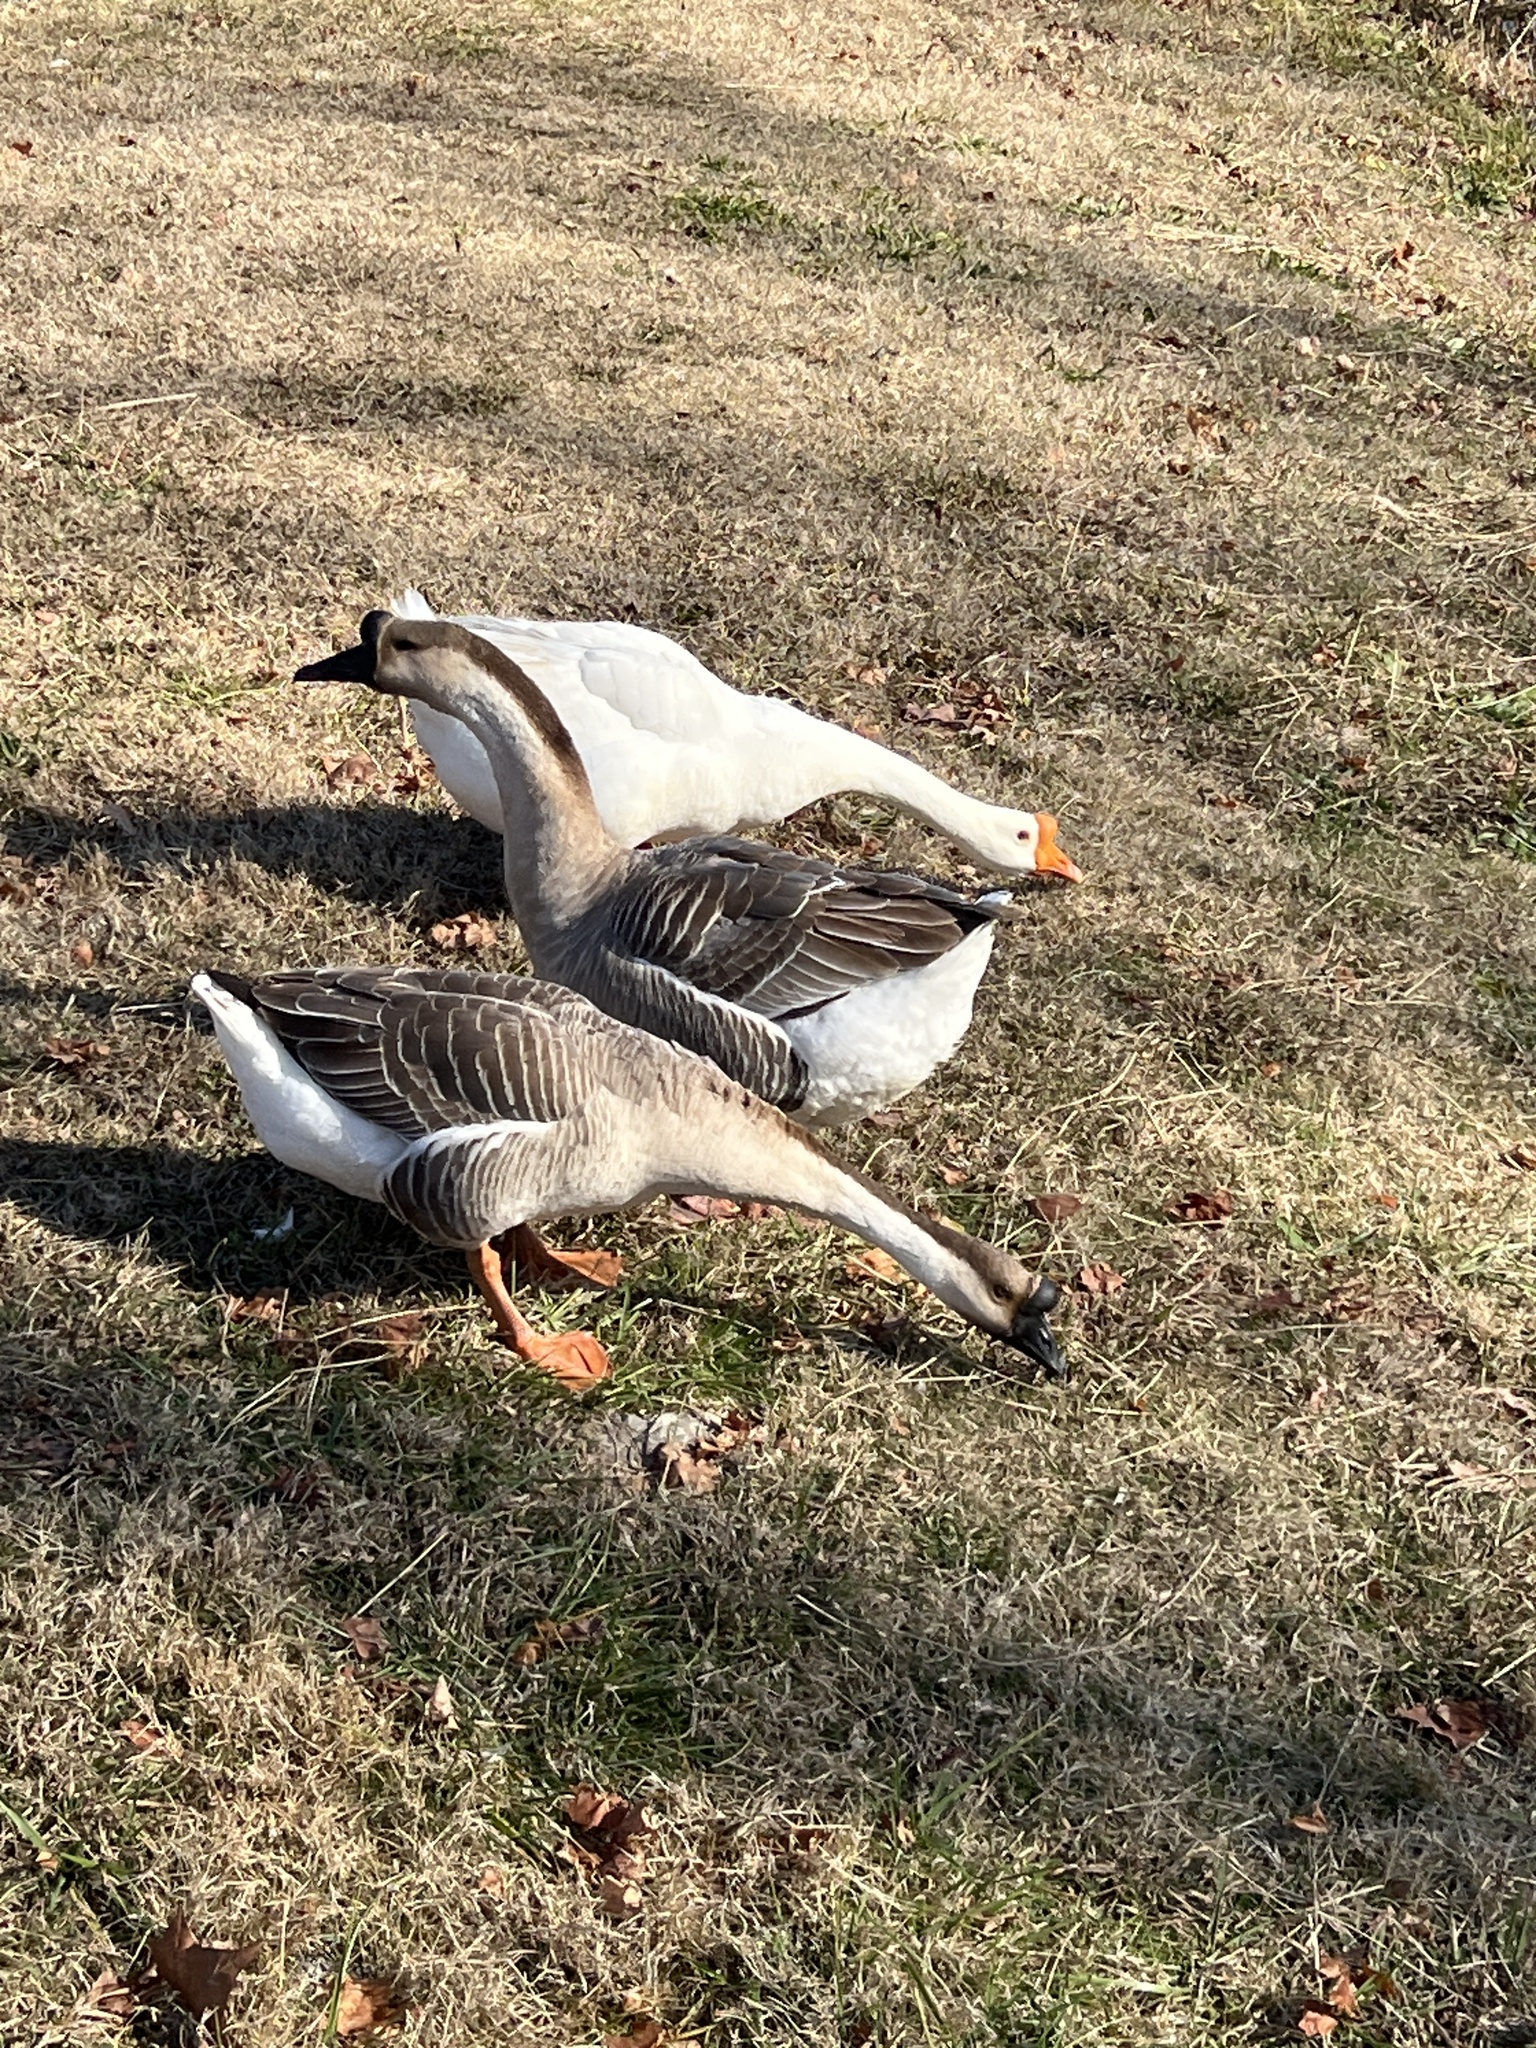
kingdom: Animalia
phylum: Chordata
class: Aves
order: Anseriformes
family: Anatidae
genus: Anser
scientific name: Anser cygnoides
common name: Swan goose
